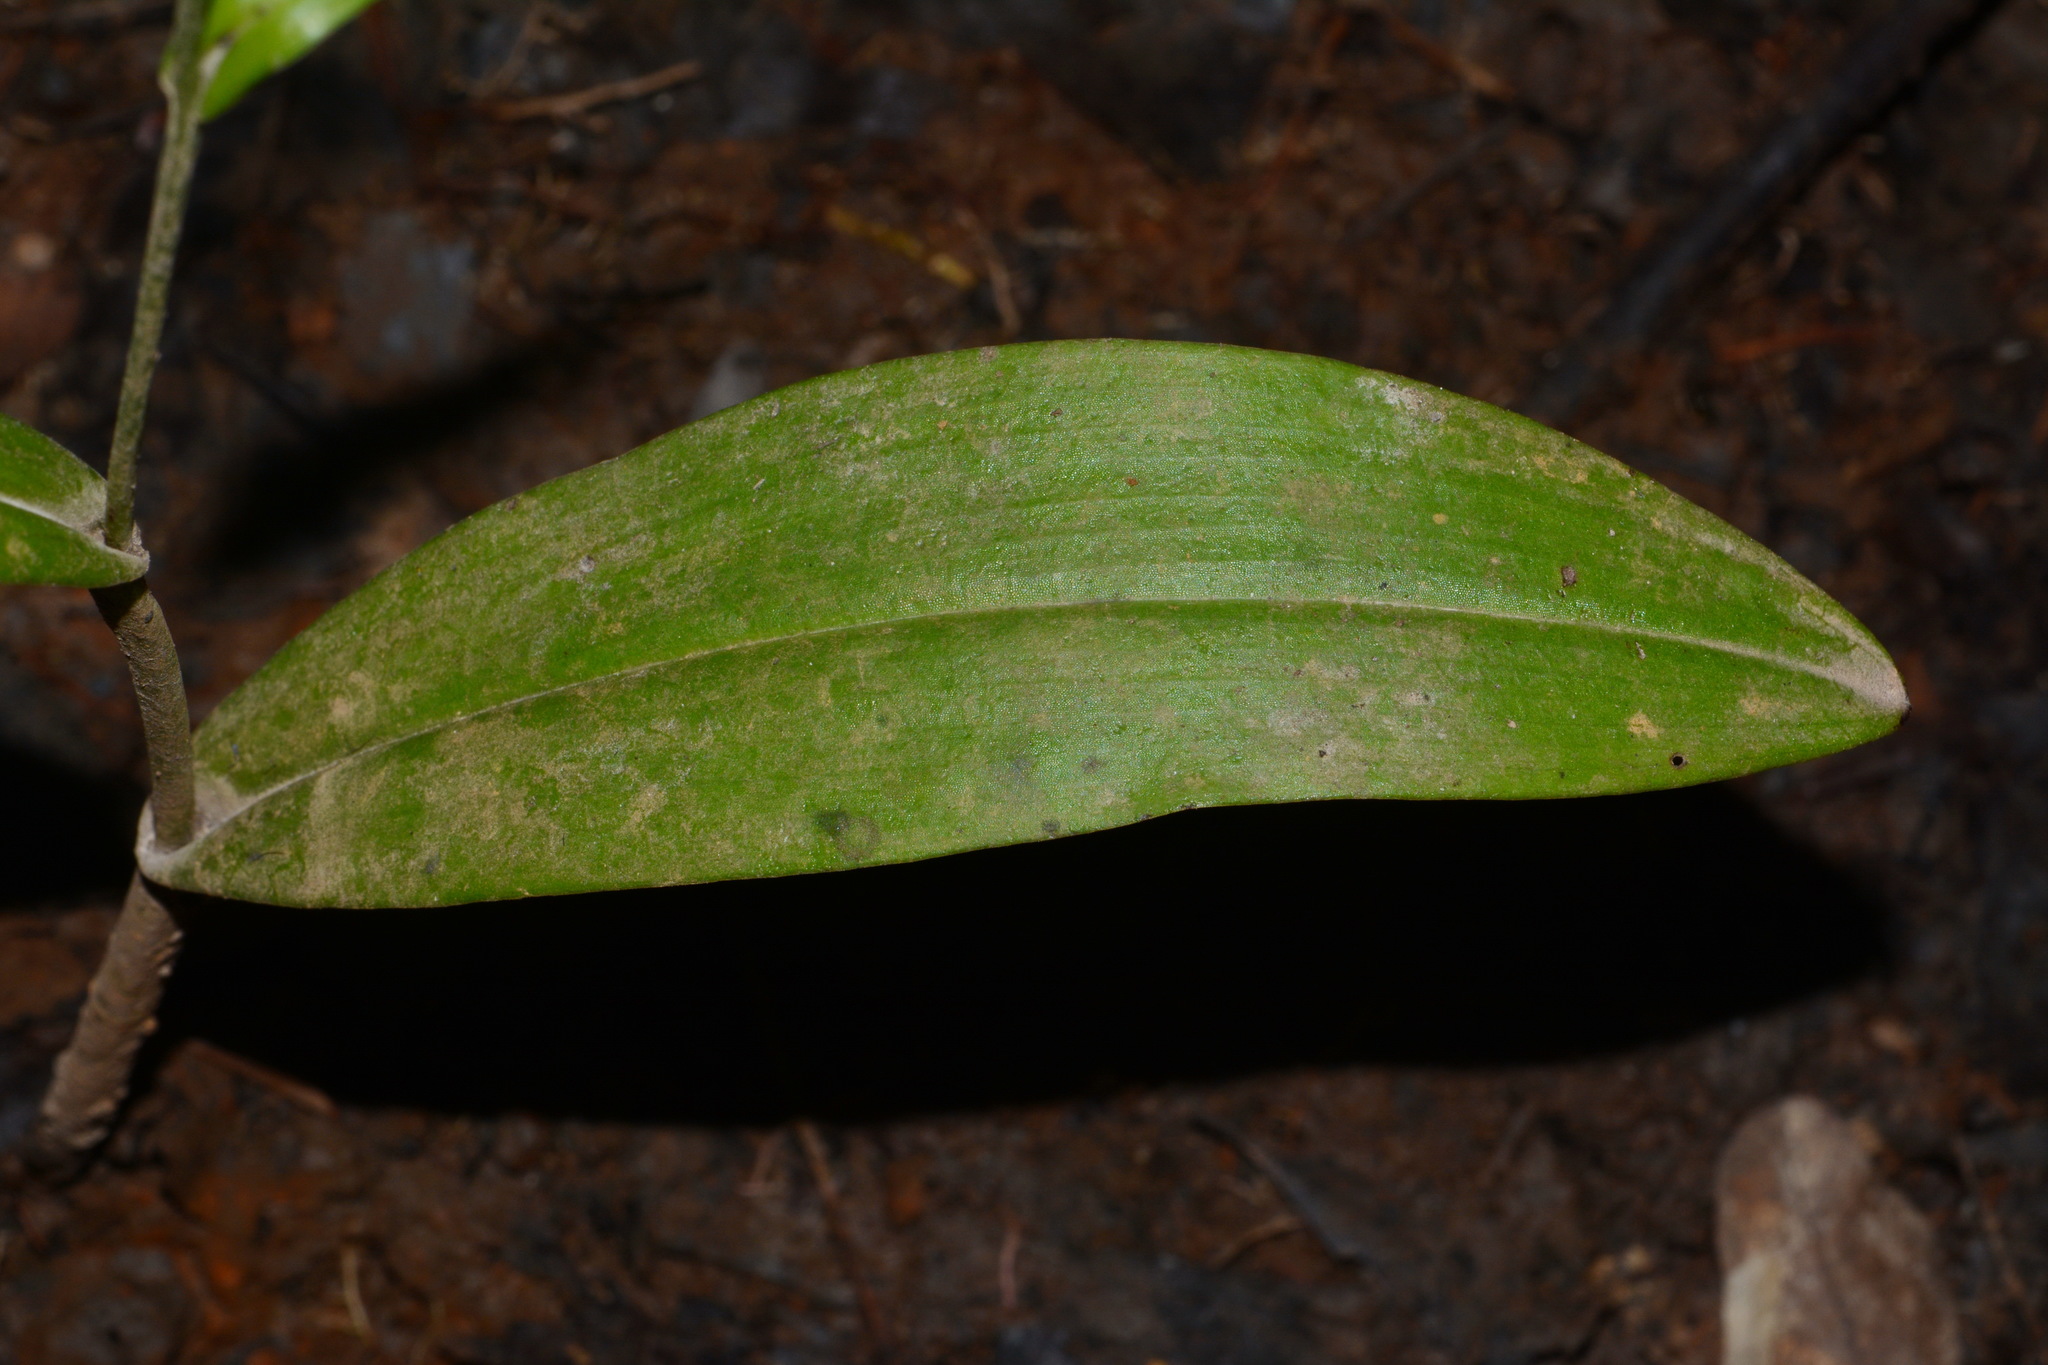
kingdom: Plantae
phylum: Tracheophyta
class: Liliopsida
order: Asparagales
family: Orchidaceae
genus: Platanthera
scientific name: Platanthera flava
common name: Gypsy-spikes
